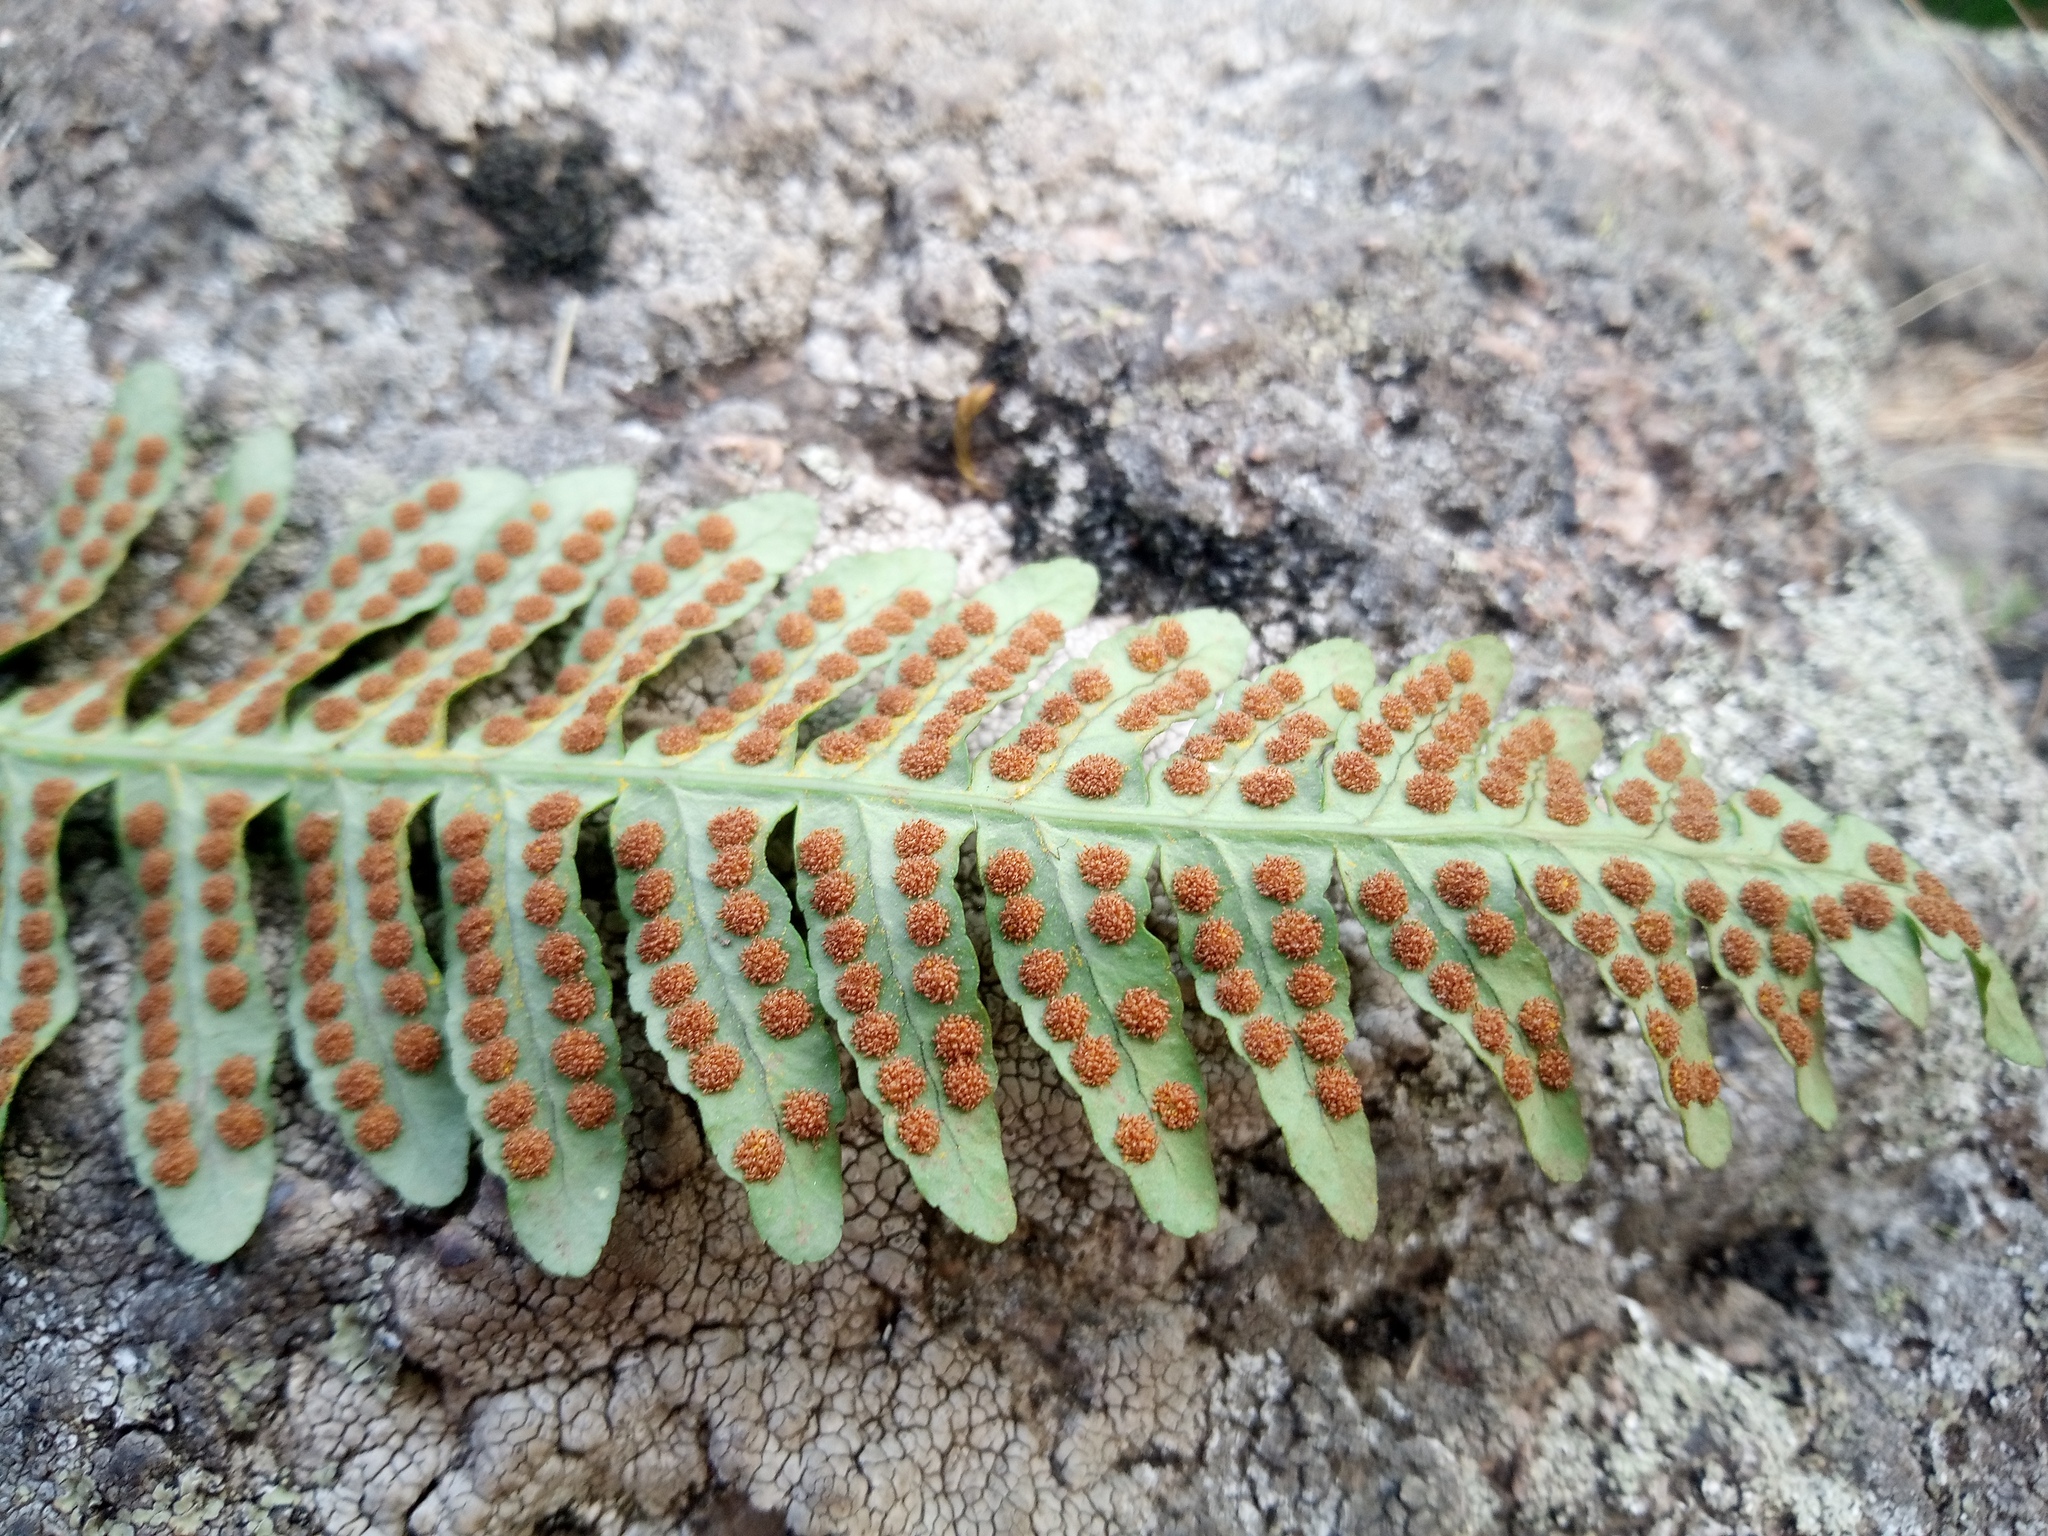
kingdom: Plantae
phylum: Tracheophyta
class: Polypodiopsida
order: Polypodiales
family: Polypodiaceae
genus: Polypodium
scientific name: Polypodium vulgare
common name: Common polypody
